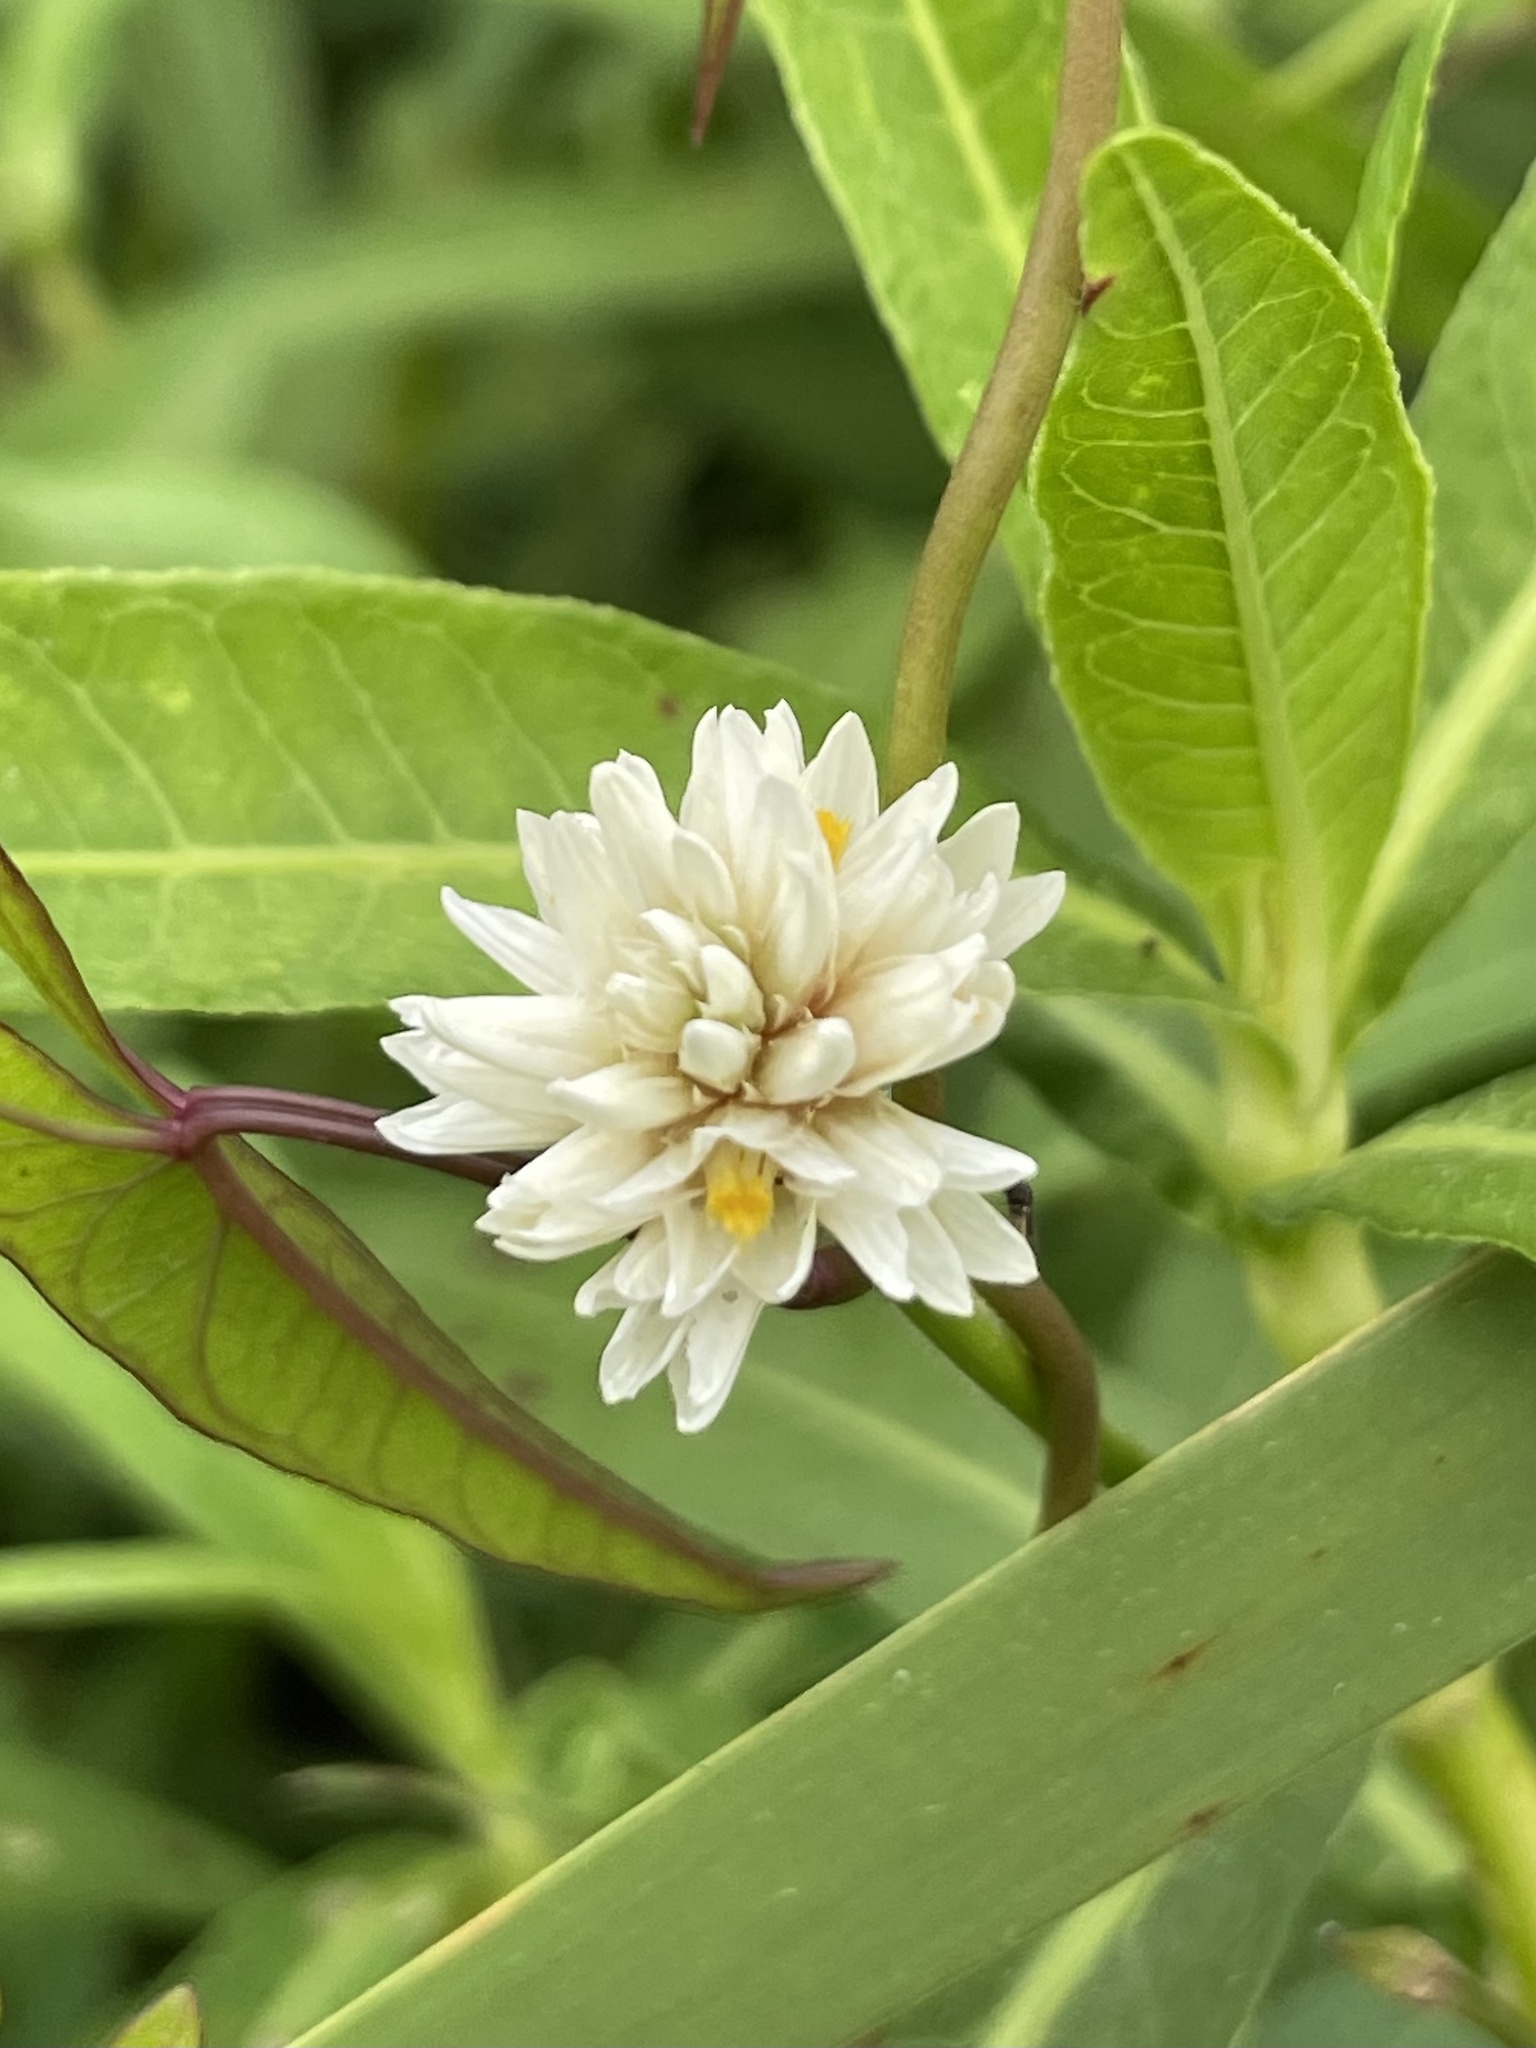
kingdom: Plantae
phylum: Tracheophyta
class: Magnoliopsida
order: Caryophyllales
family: Amaranthaceae
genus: Alternanthera
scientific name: Alternanthera philoxeroides
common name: Alligatorweed
